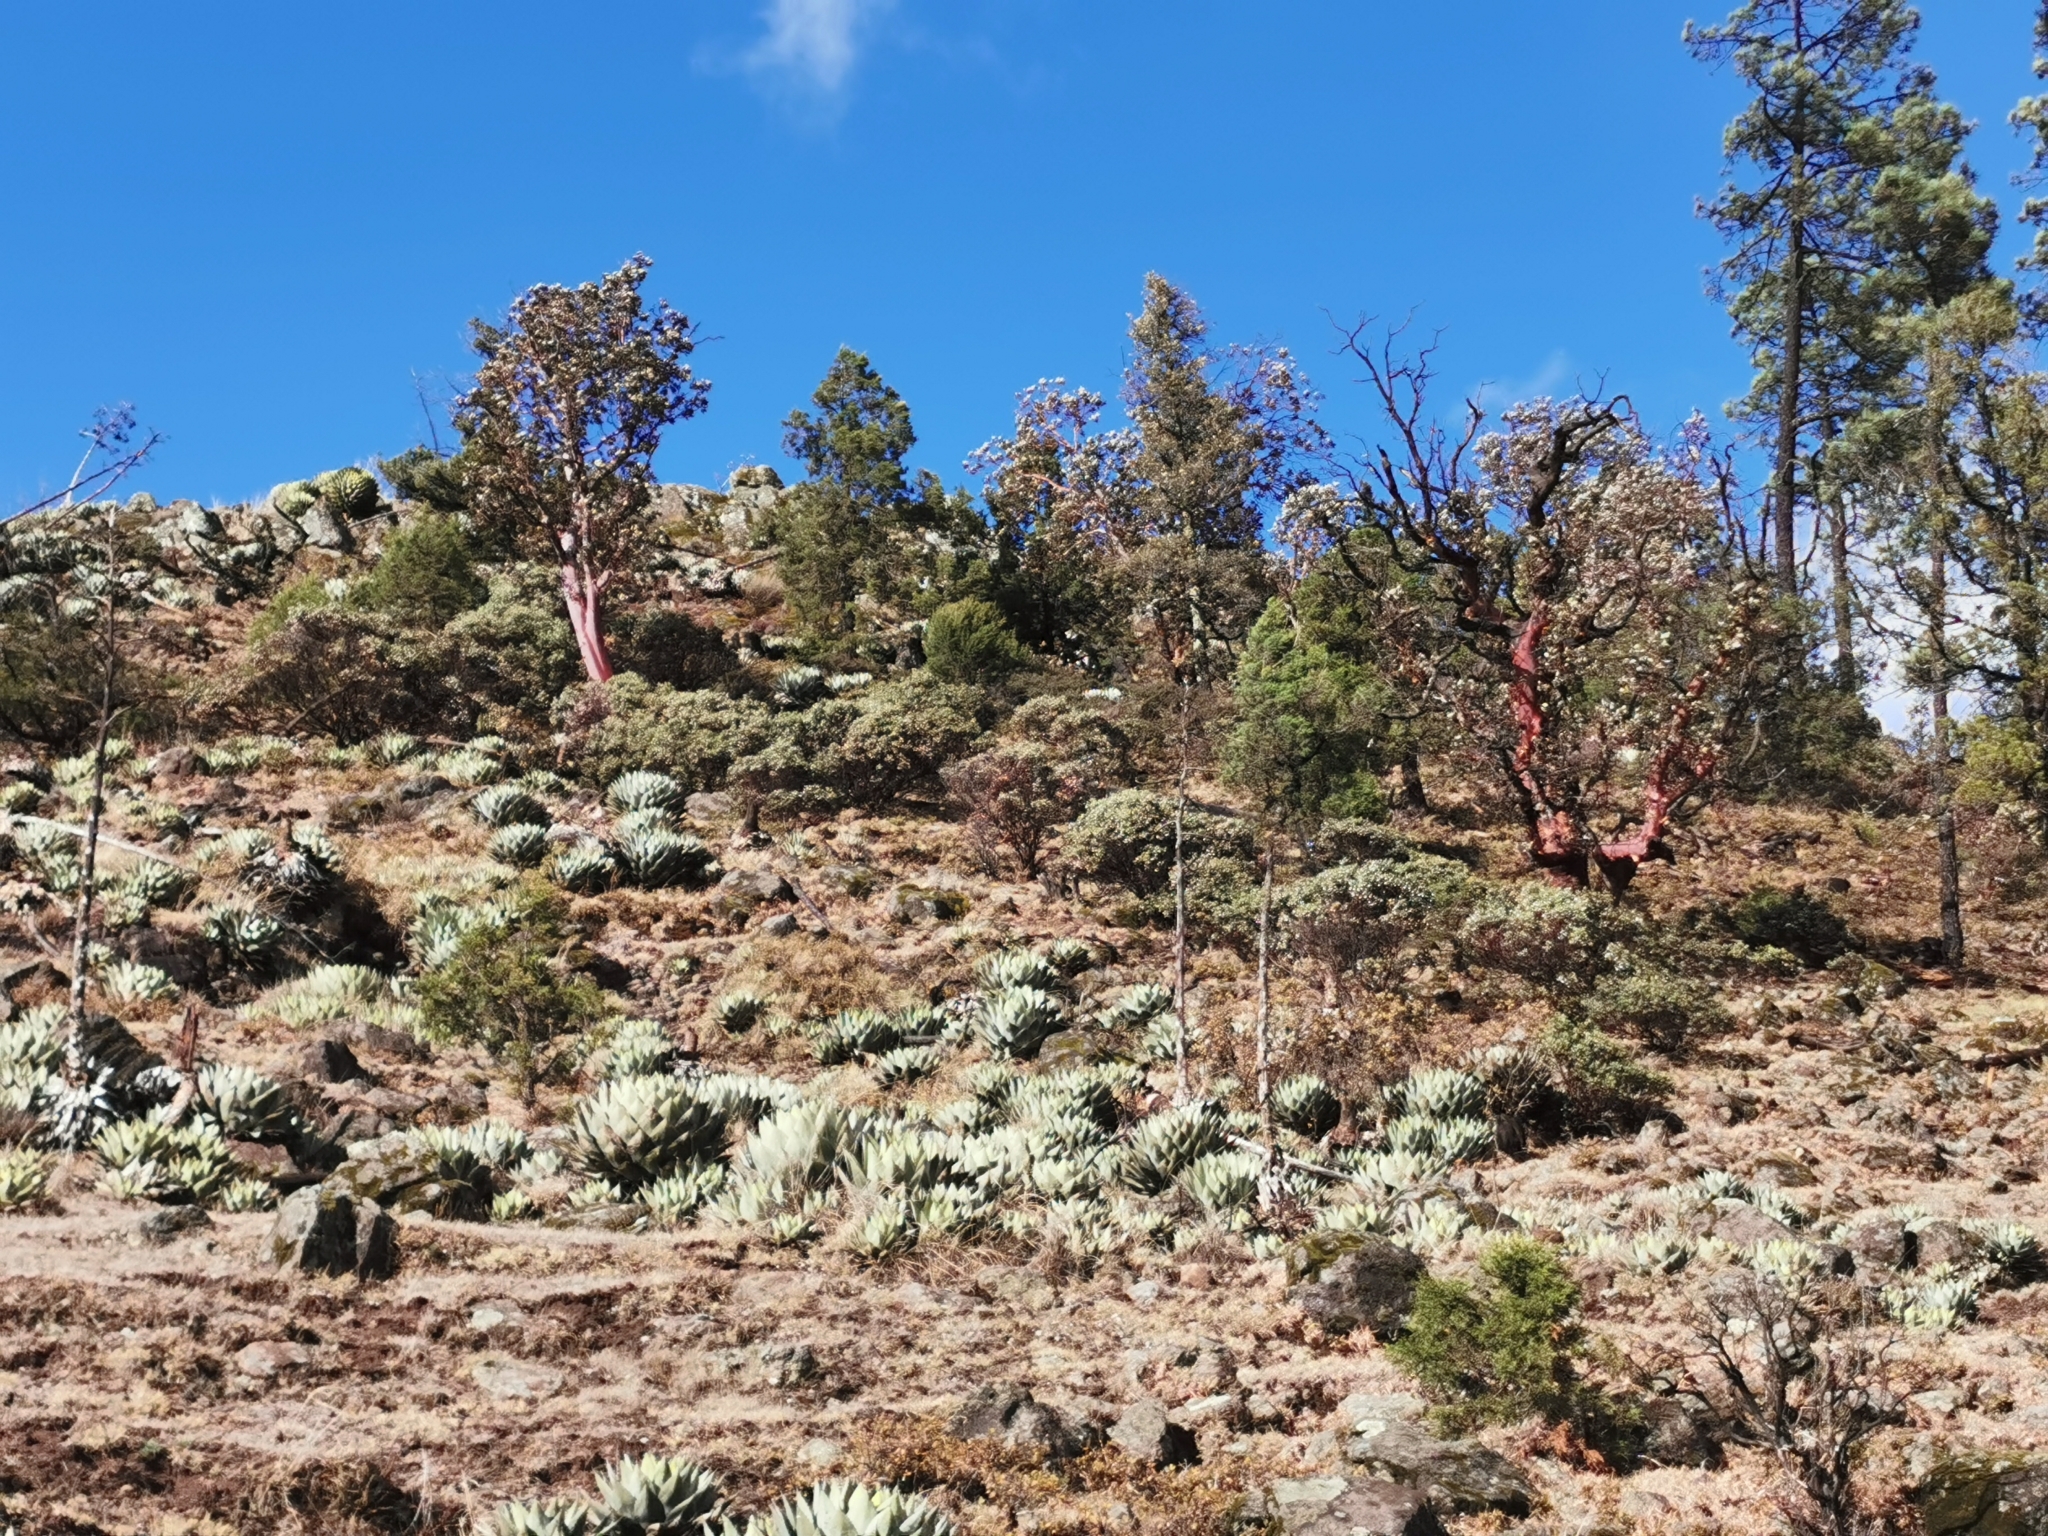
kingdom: Plantae
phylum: Tracheophyta
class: Liliopsida
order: Asparagales
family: Asparagaceae
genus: Agave
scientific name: Agave parryi
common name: Parry's agave
